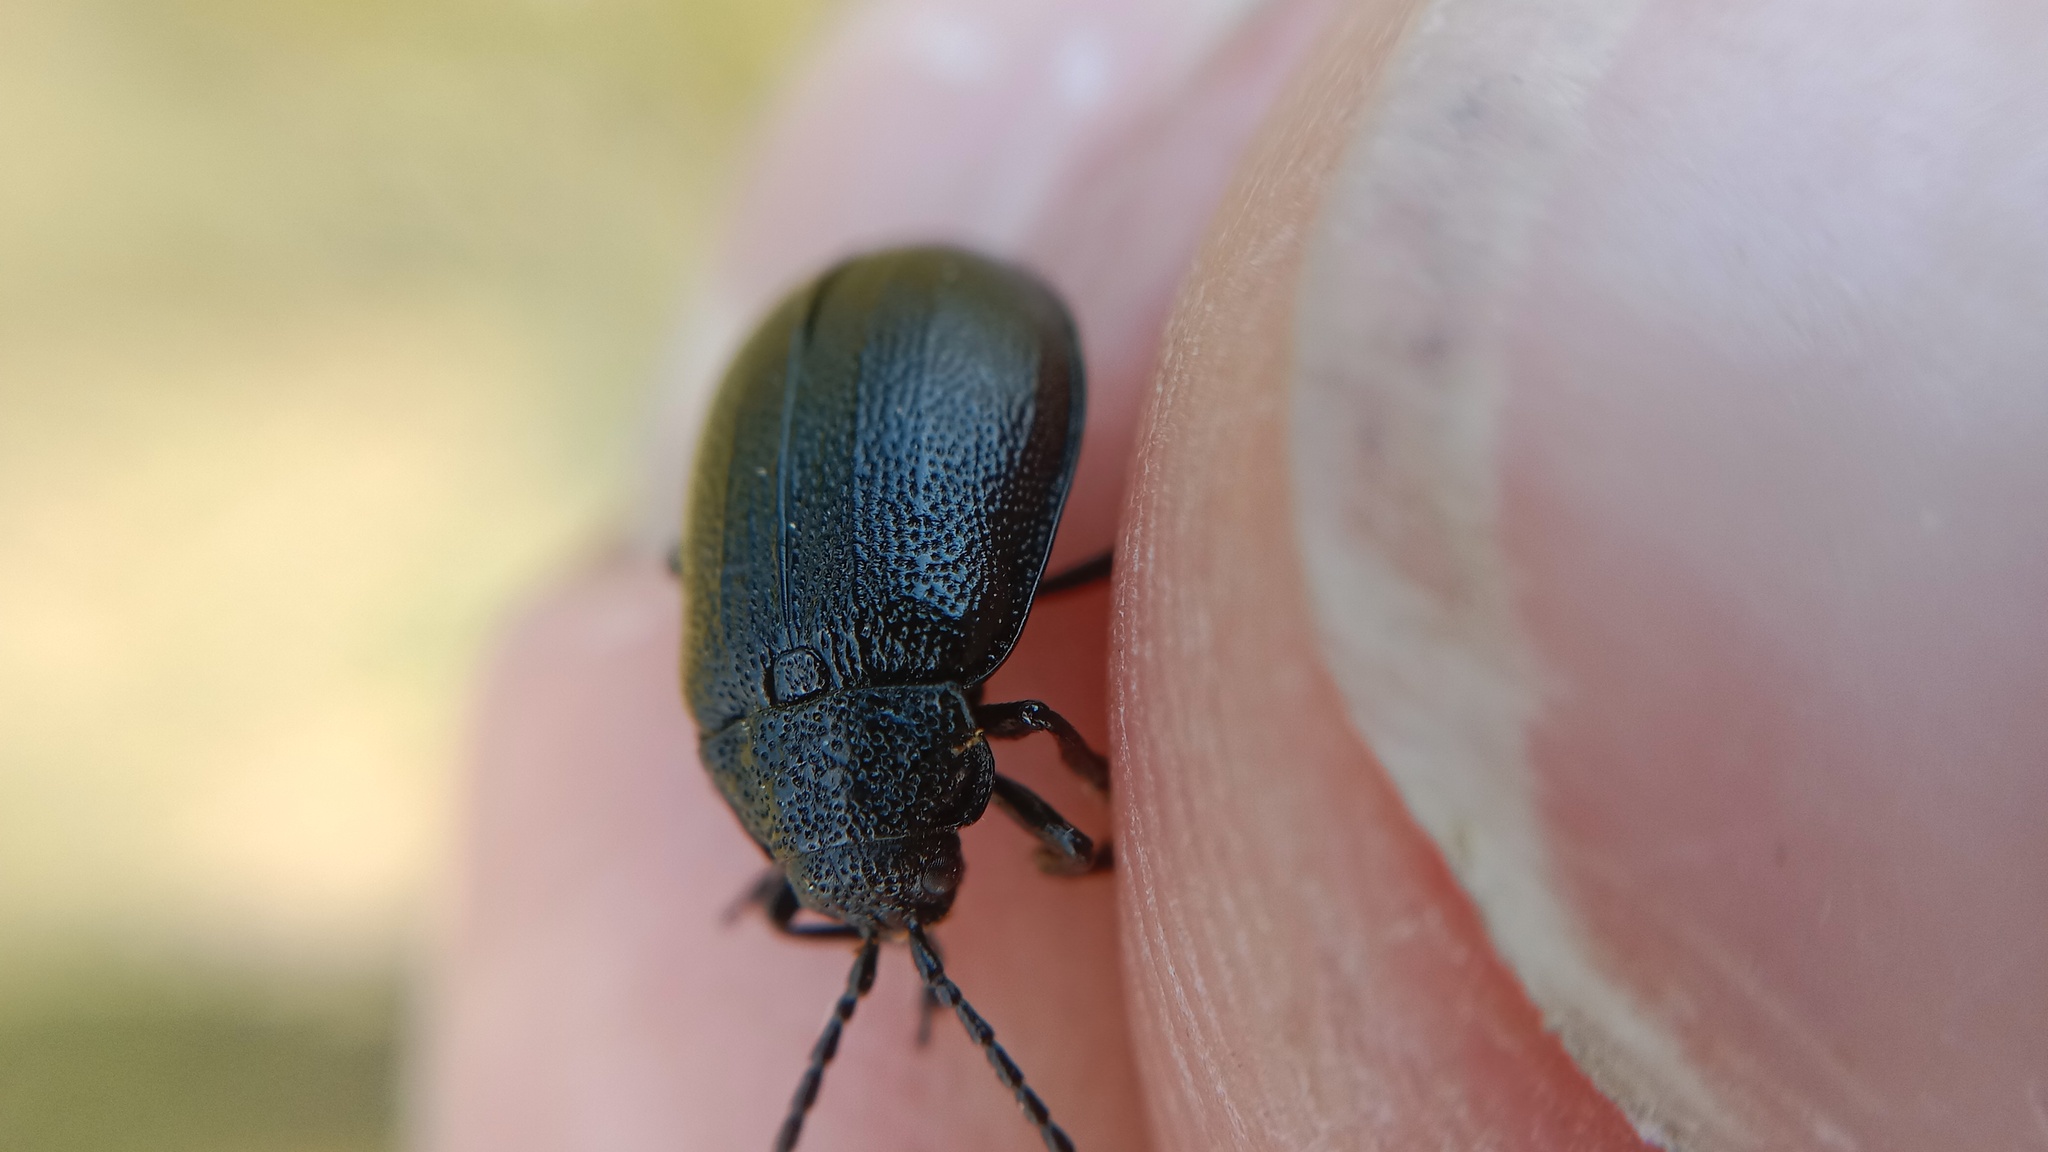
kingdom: Animalia
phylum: Arthropoda
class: Insecta
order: Coleoptera
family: Chrysomelidae
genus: Galeruca
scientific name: Galeruca tanaceti
